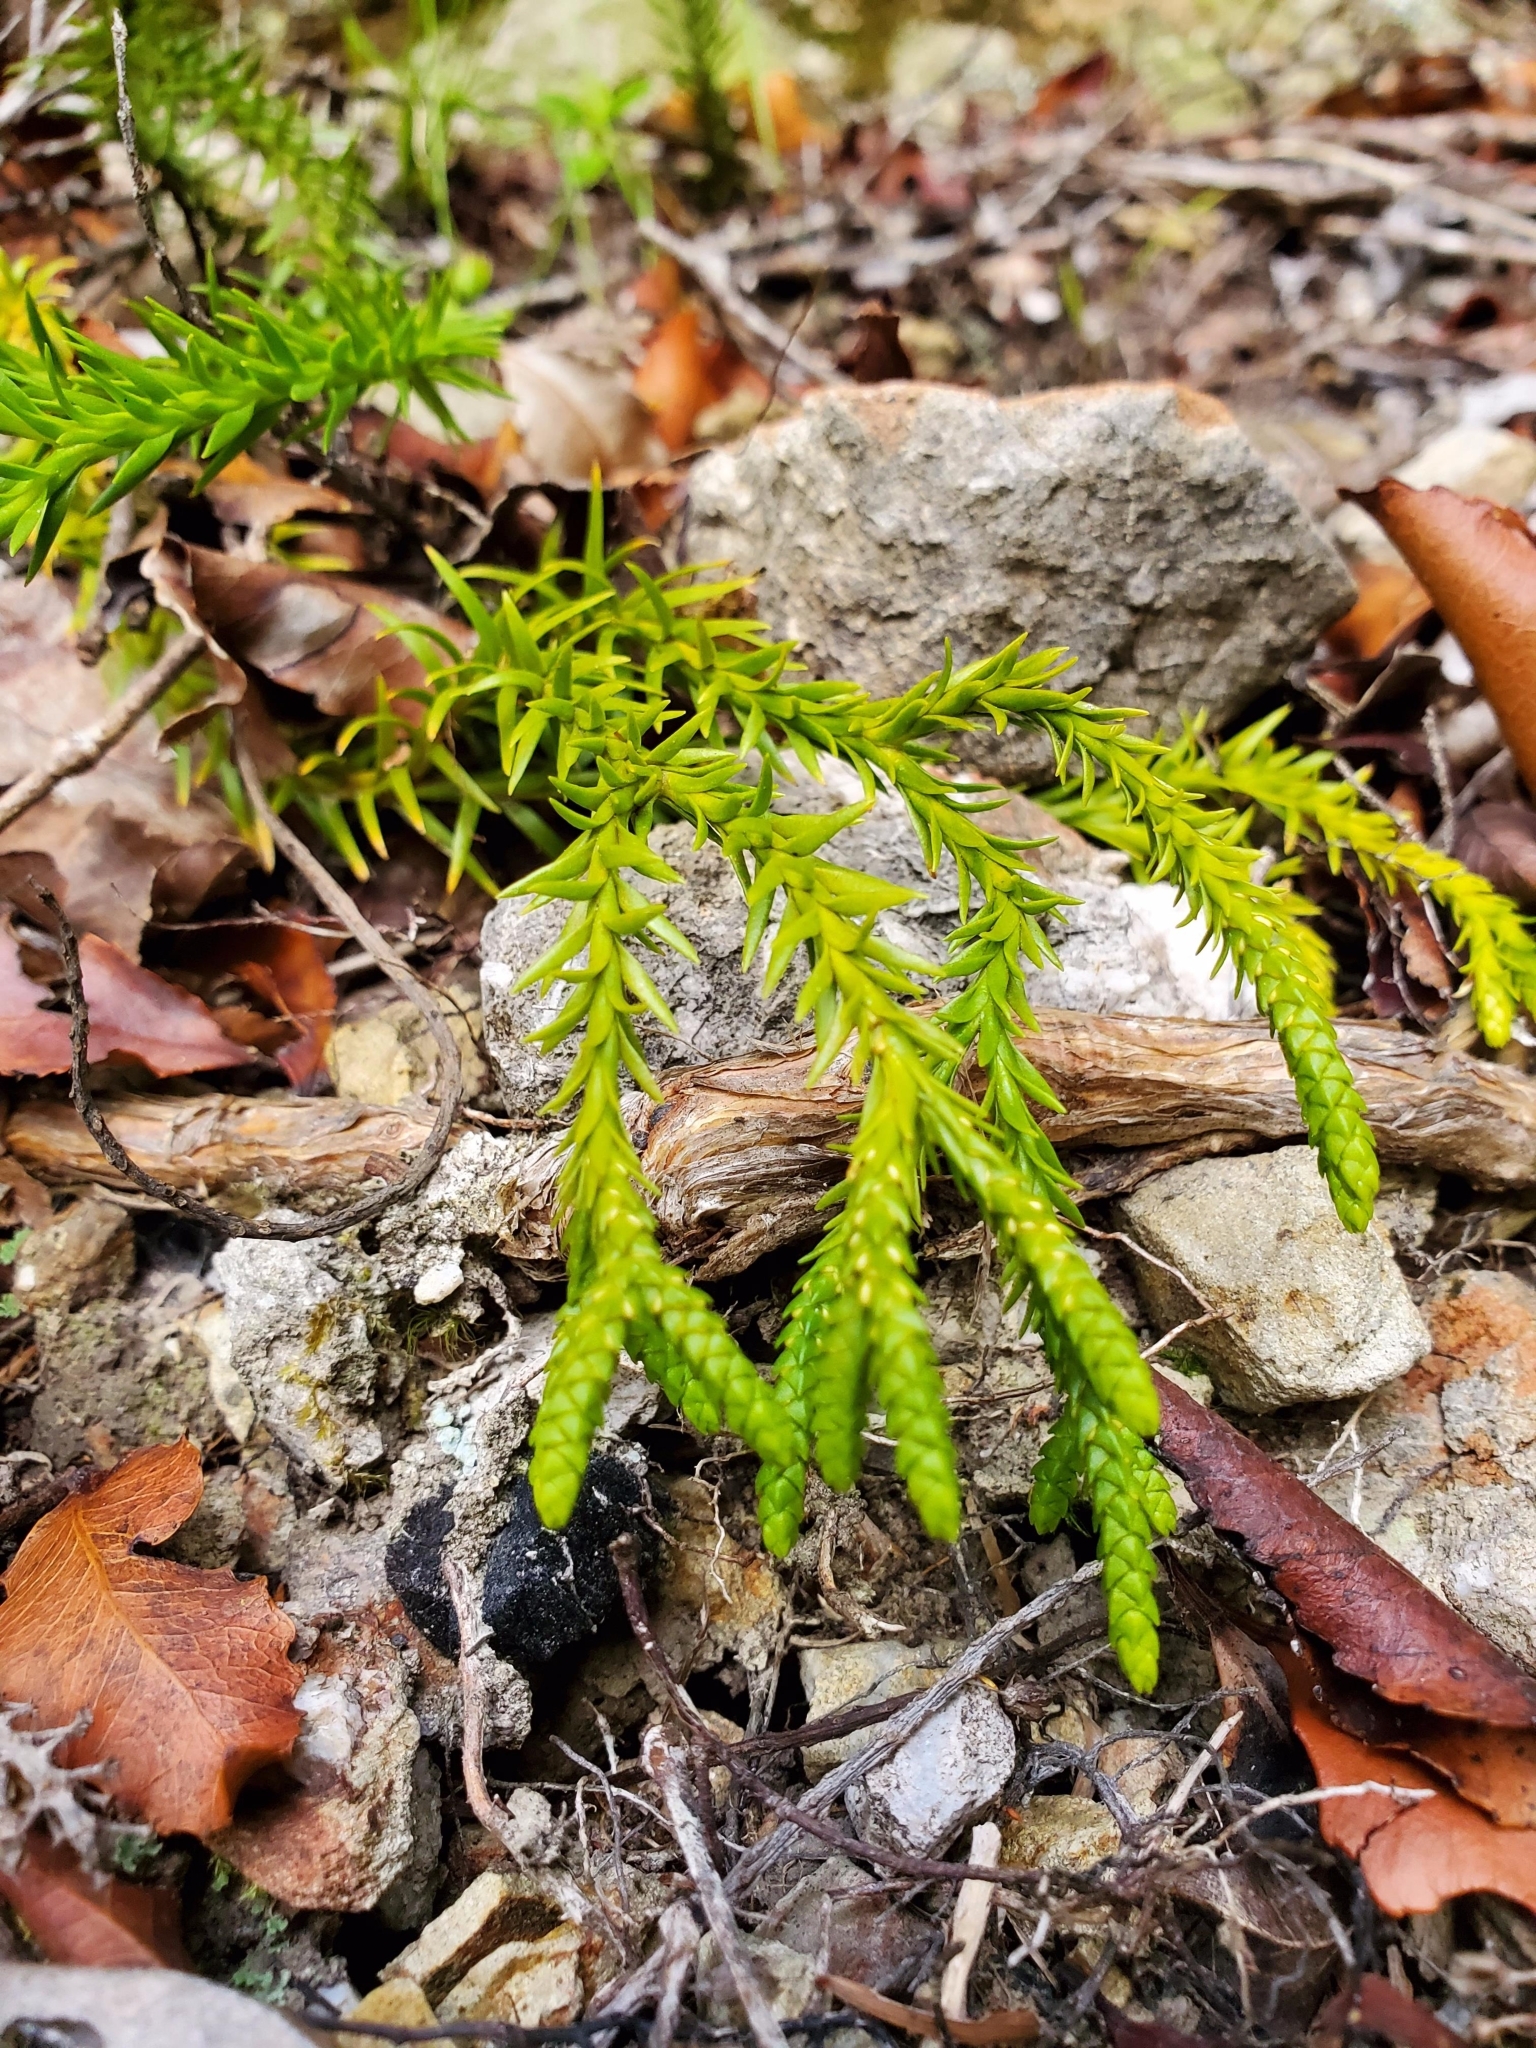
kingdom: Plantae
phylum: Tracheophyta
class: Lycopodiopsida
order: Lycopodiales
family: Lycopodiaceae
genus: Phlegmariurus
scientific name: Phlegmariurus varius
